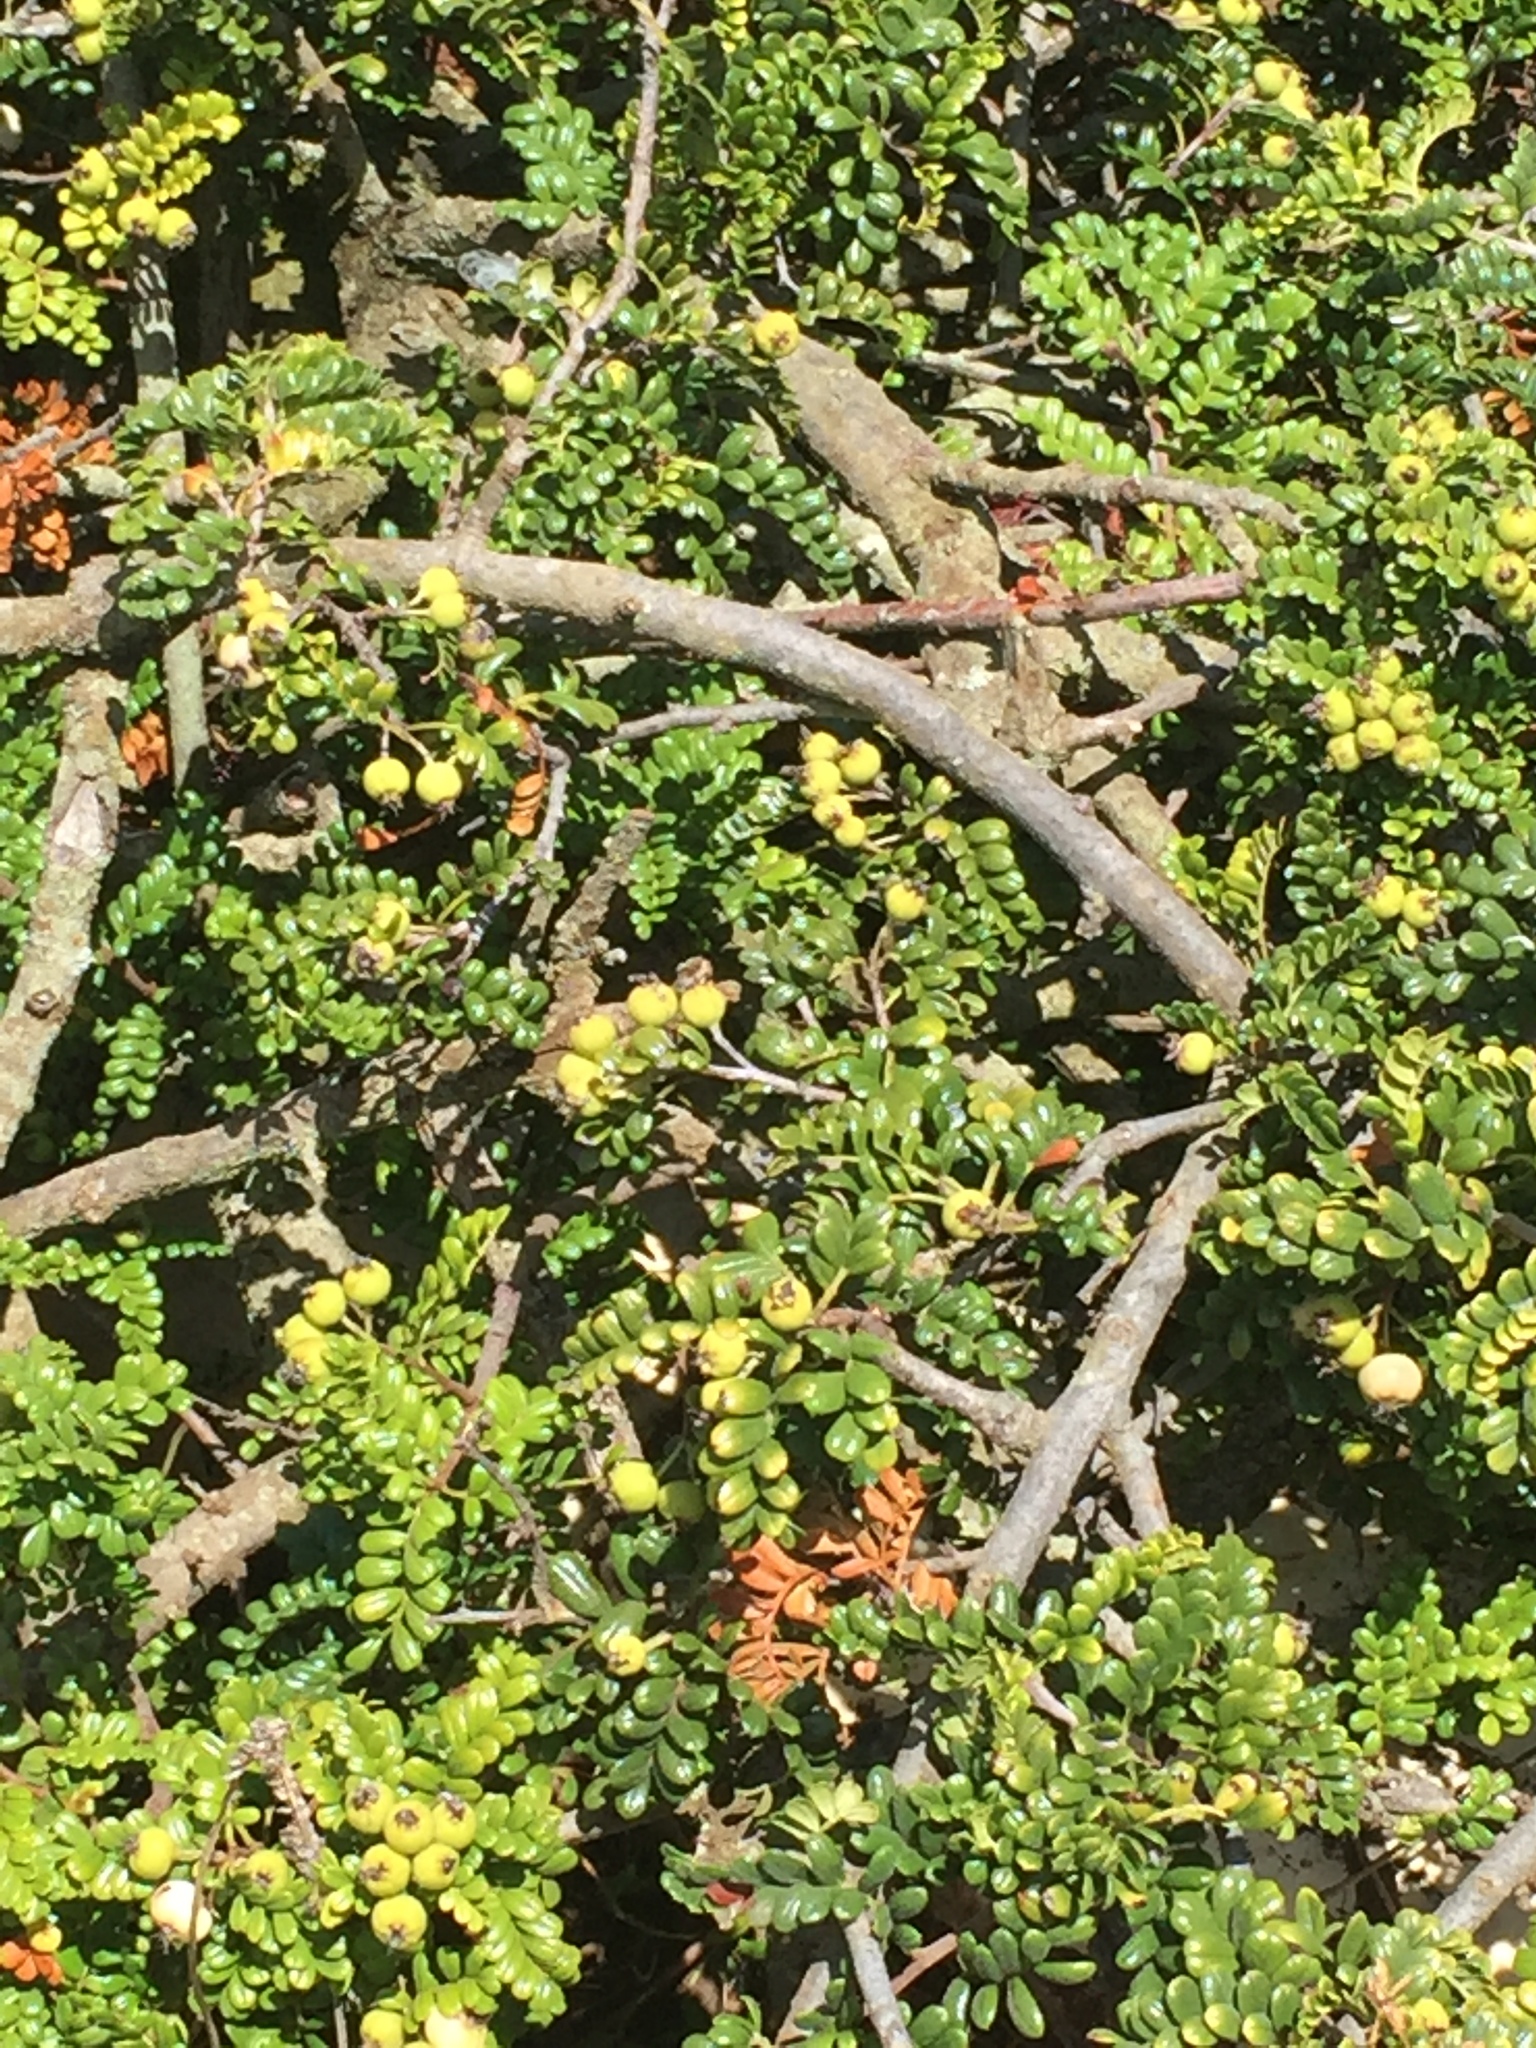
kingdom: Plantae
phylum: Tracheophyta
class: Magnoliopsida
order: Rosales
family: Rosaceae
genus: Osteomeles
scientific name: Osteomeles anthyllidifolia
